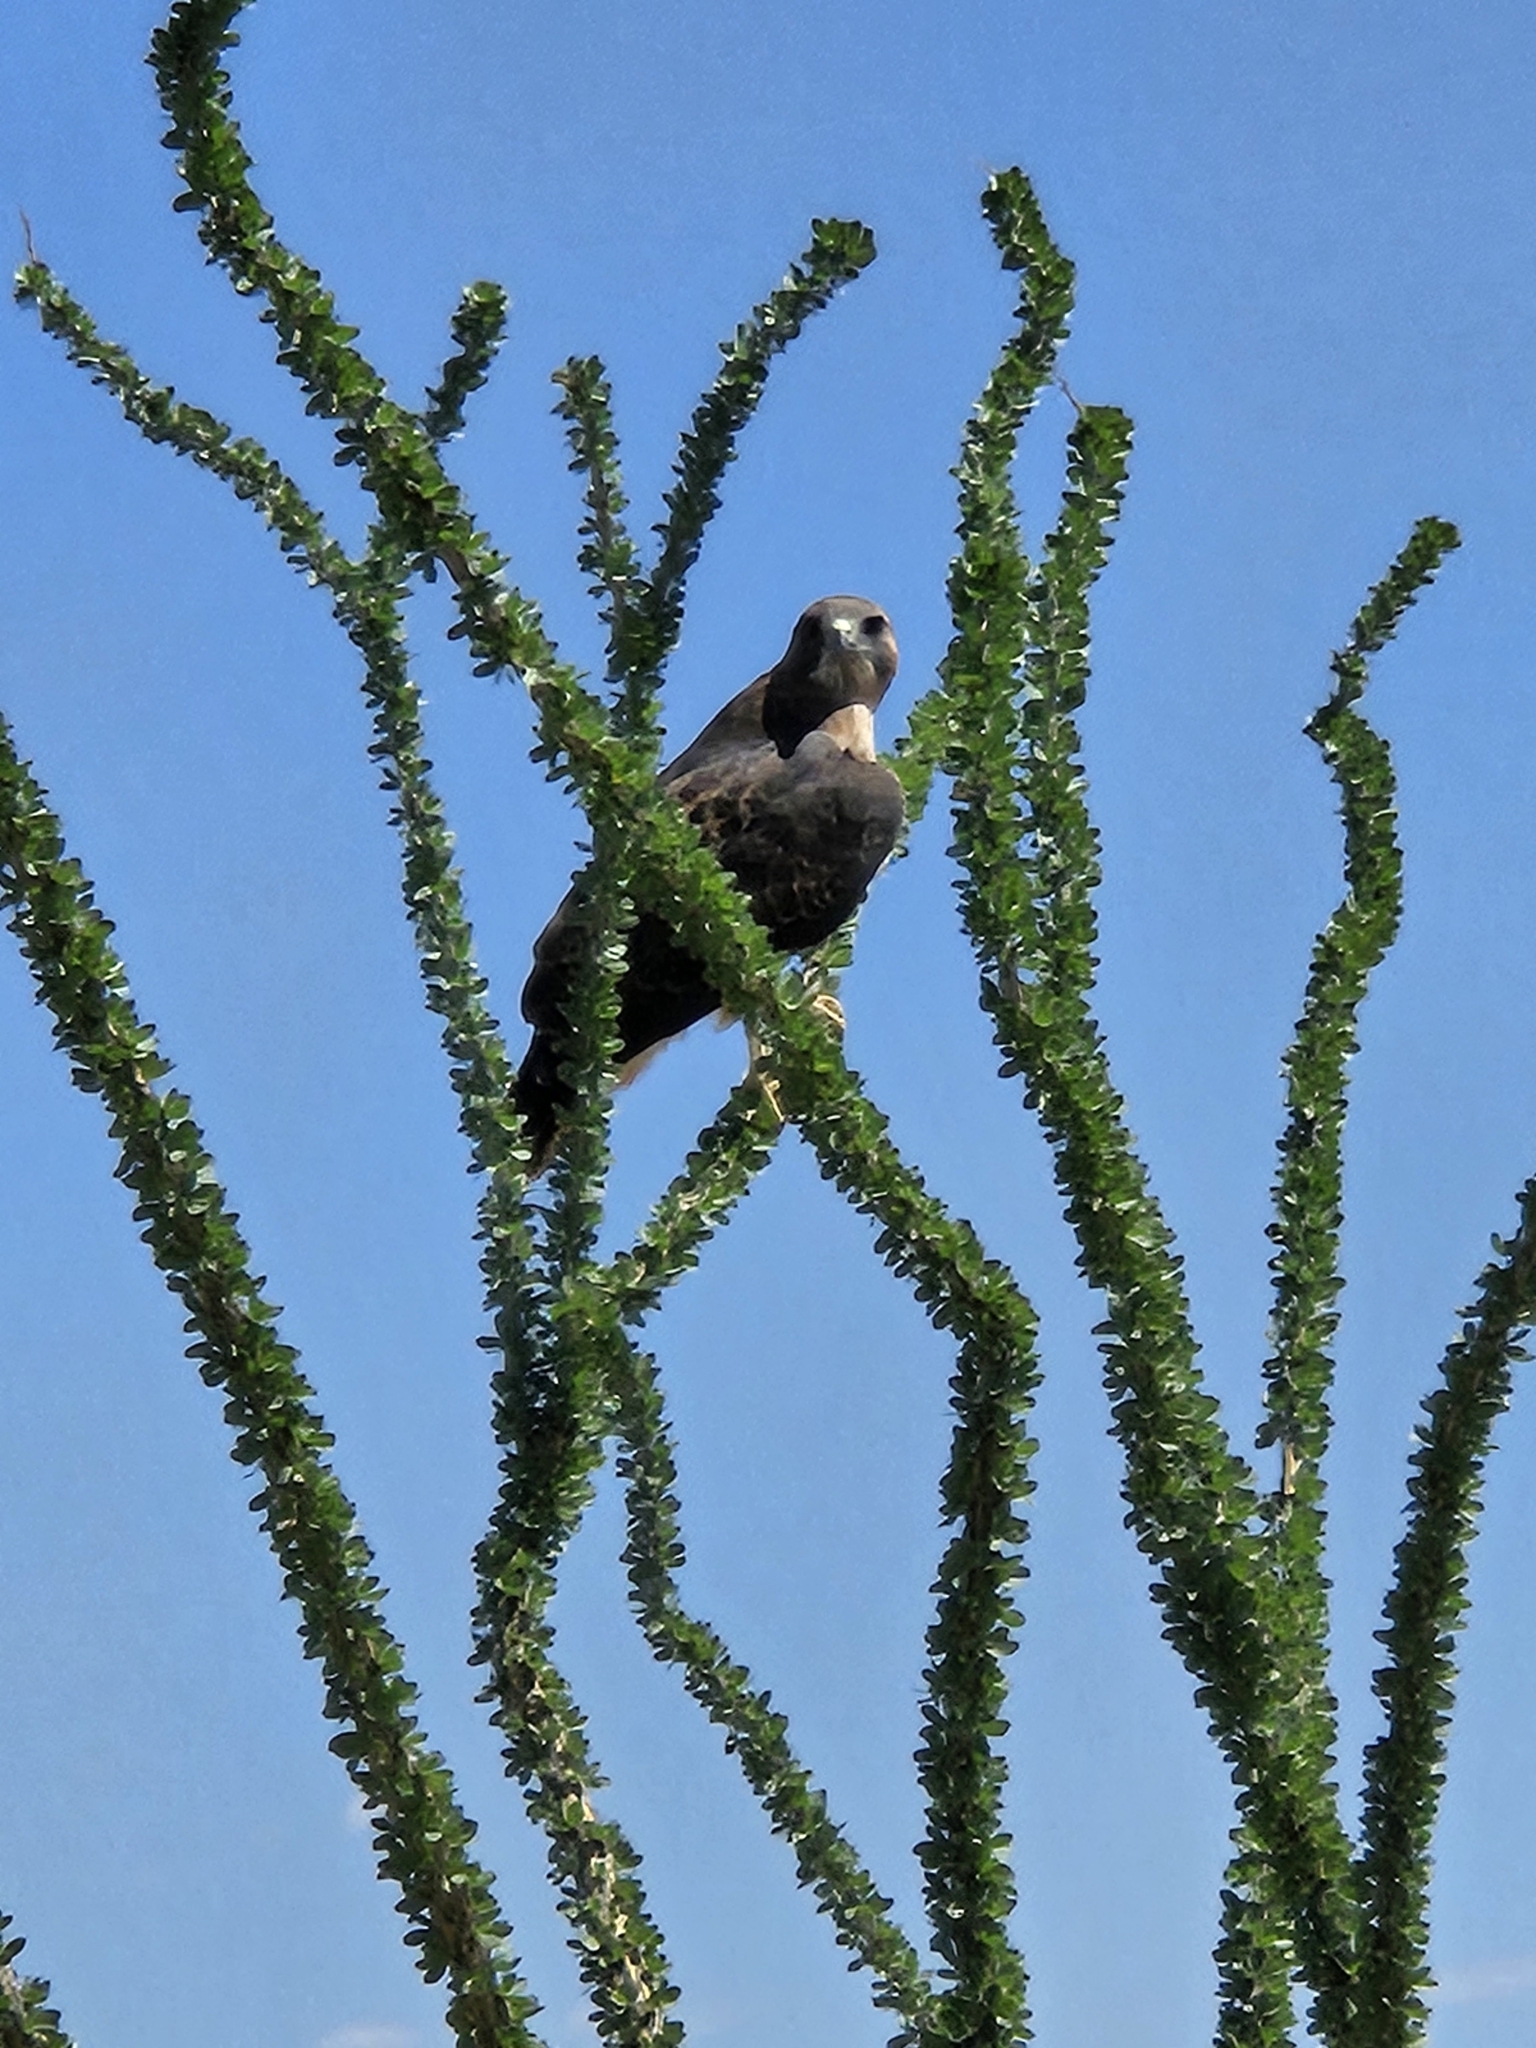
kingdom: Animalia
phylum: Chordata
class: Aves
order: Accipitriformes
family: Accipitridae
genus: Buteo
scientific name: Buteo jamaicensis
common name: Red-tailed hawk
